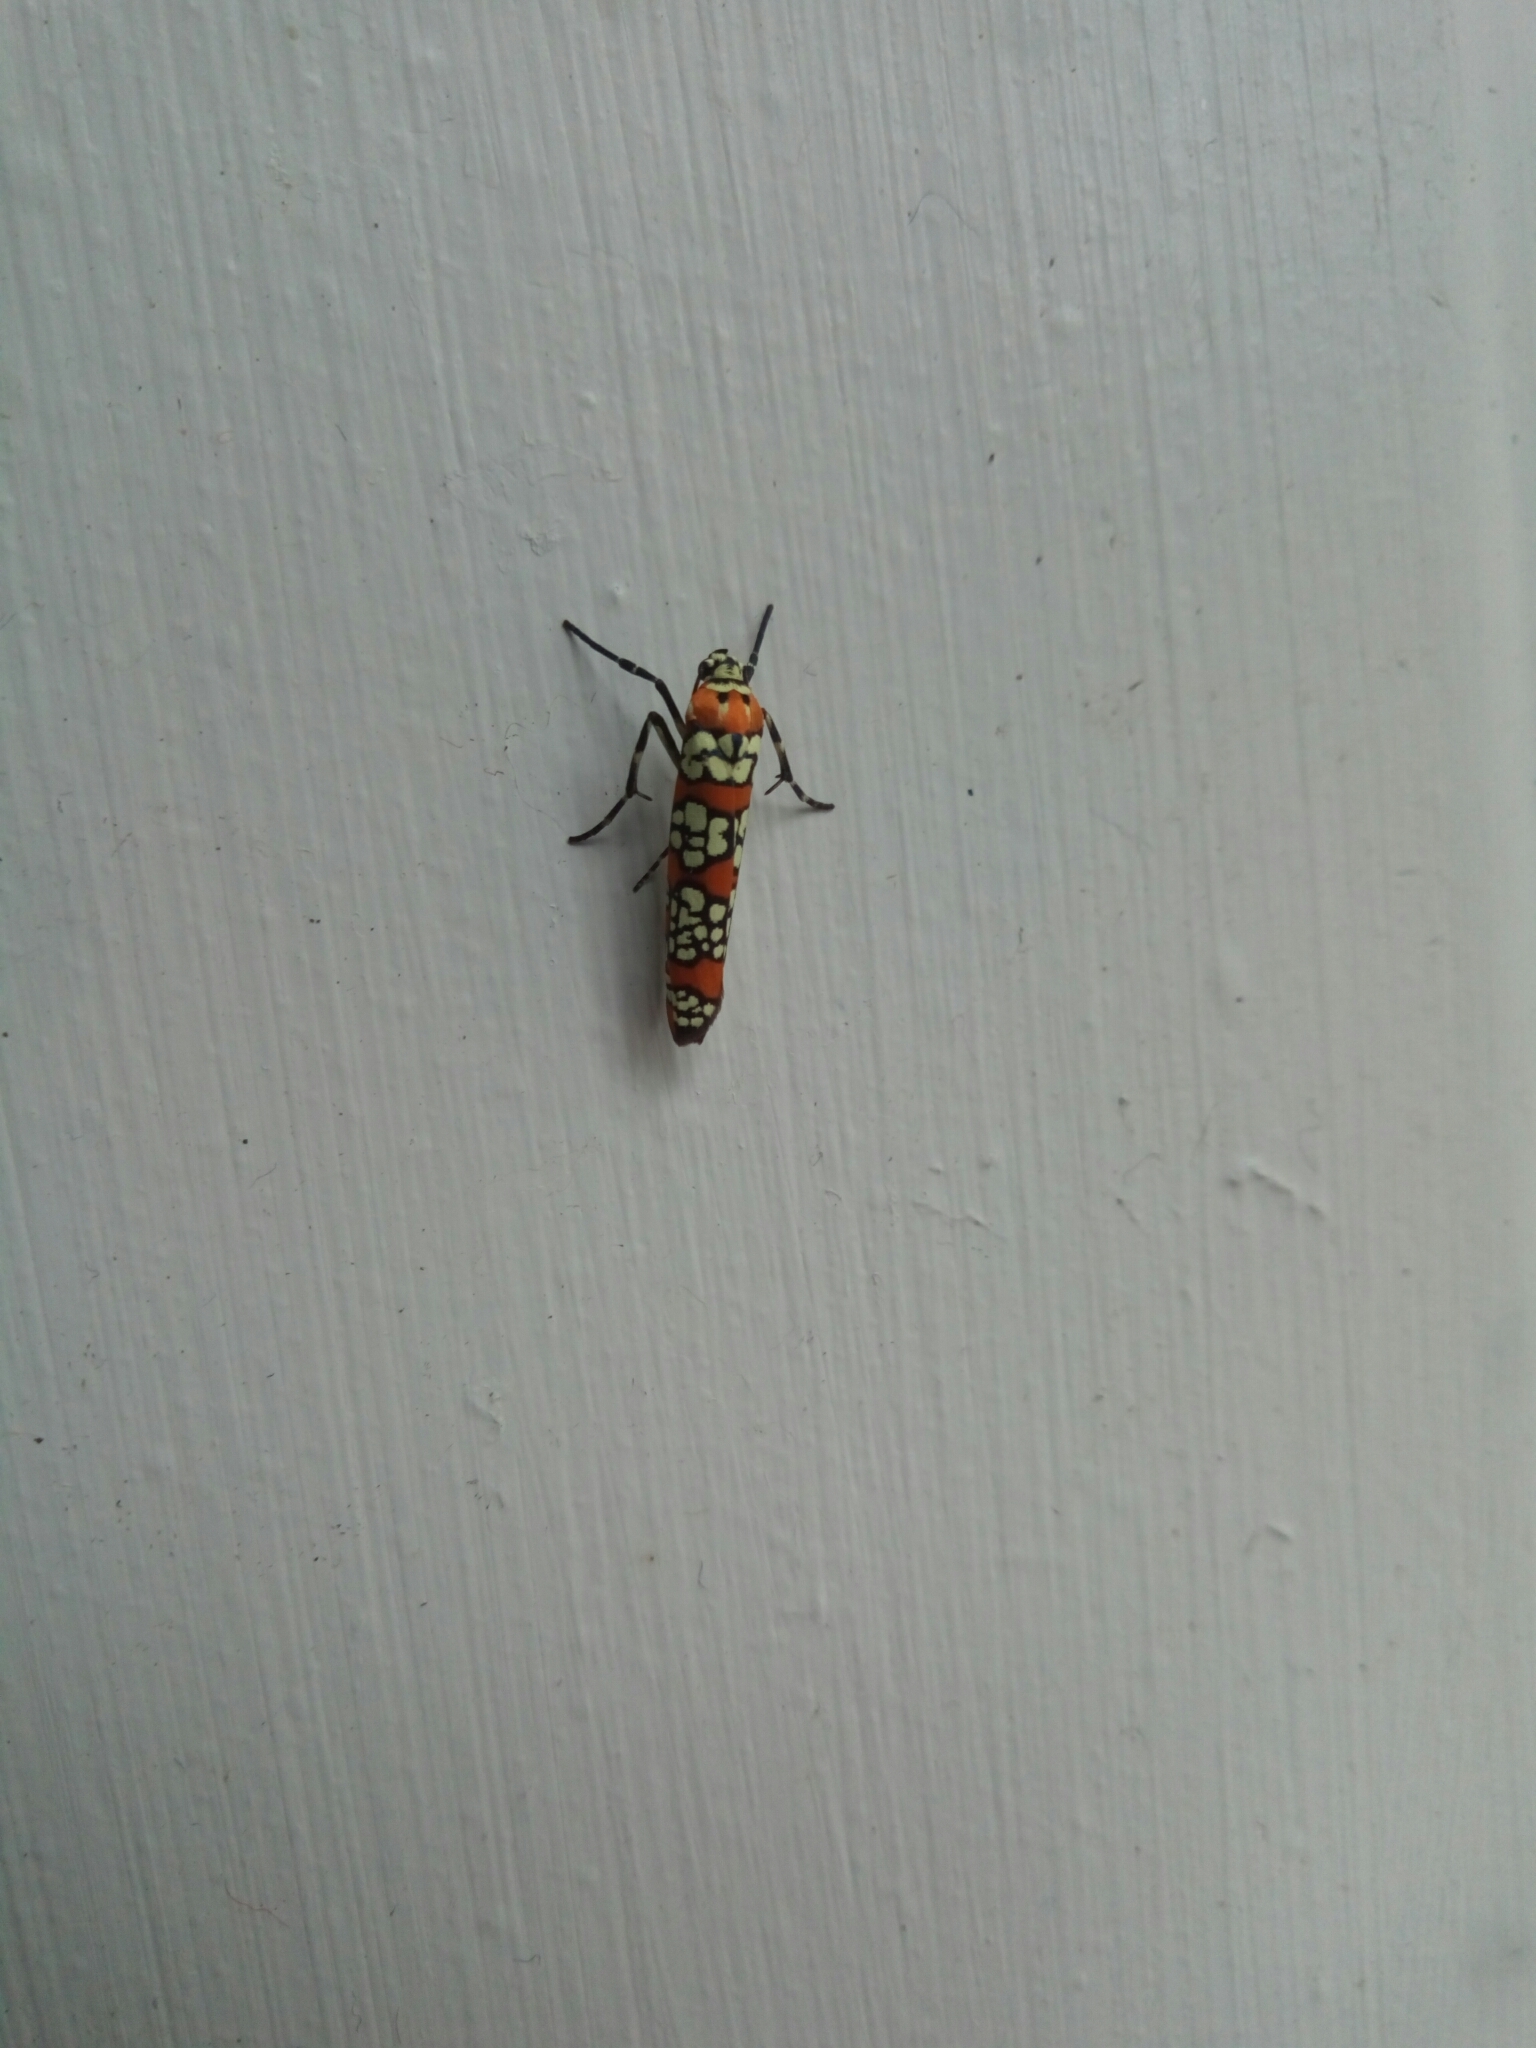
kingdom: Animalia
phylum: Arthropoda
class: Insecta
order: Lepidoptera
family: Attevidae
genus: Atteva
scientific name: Atteva punctella
